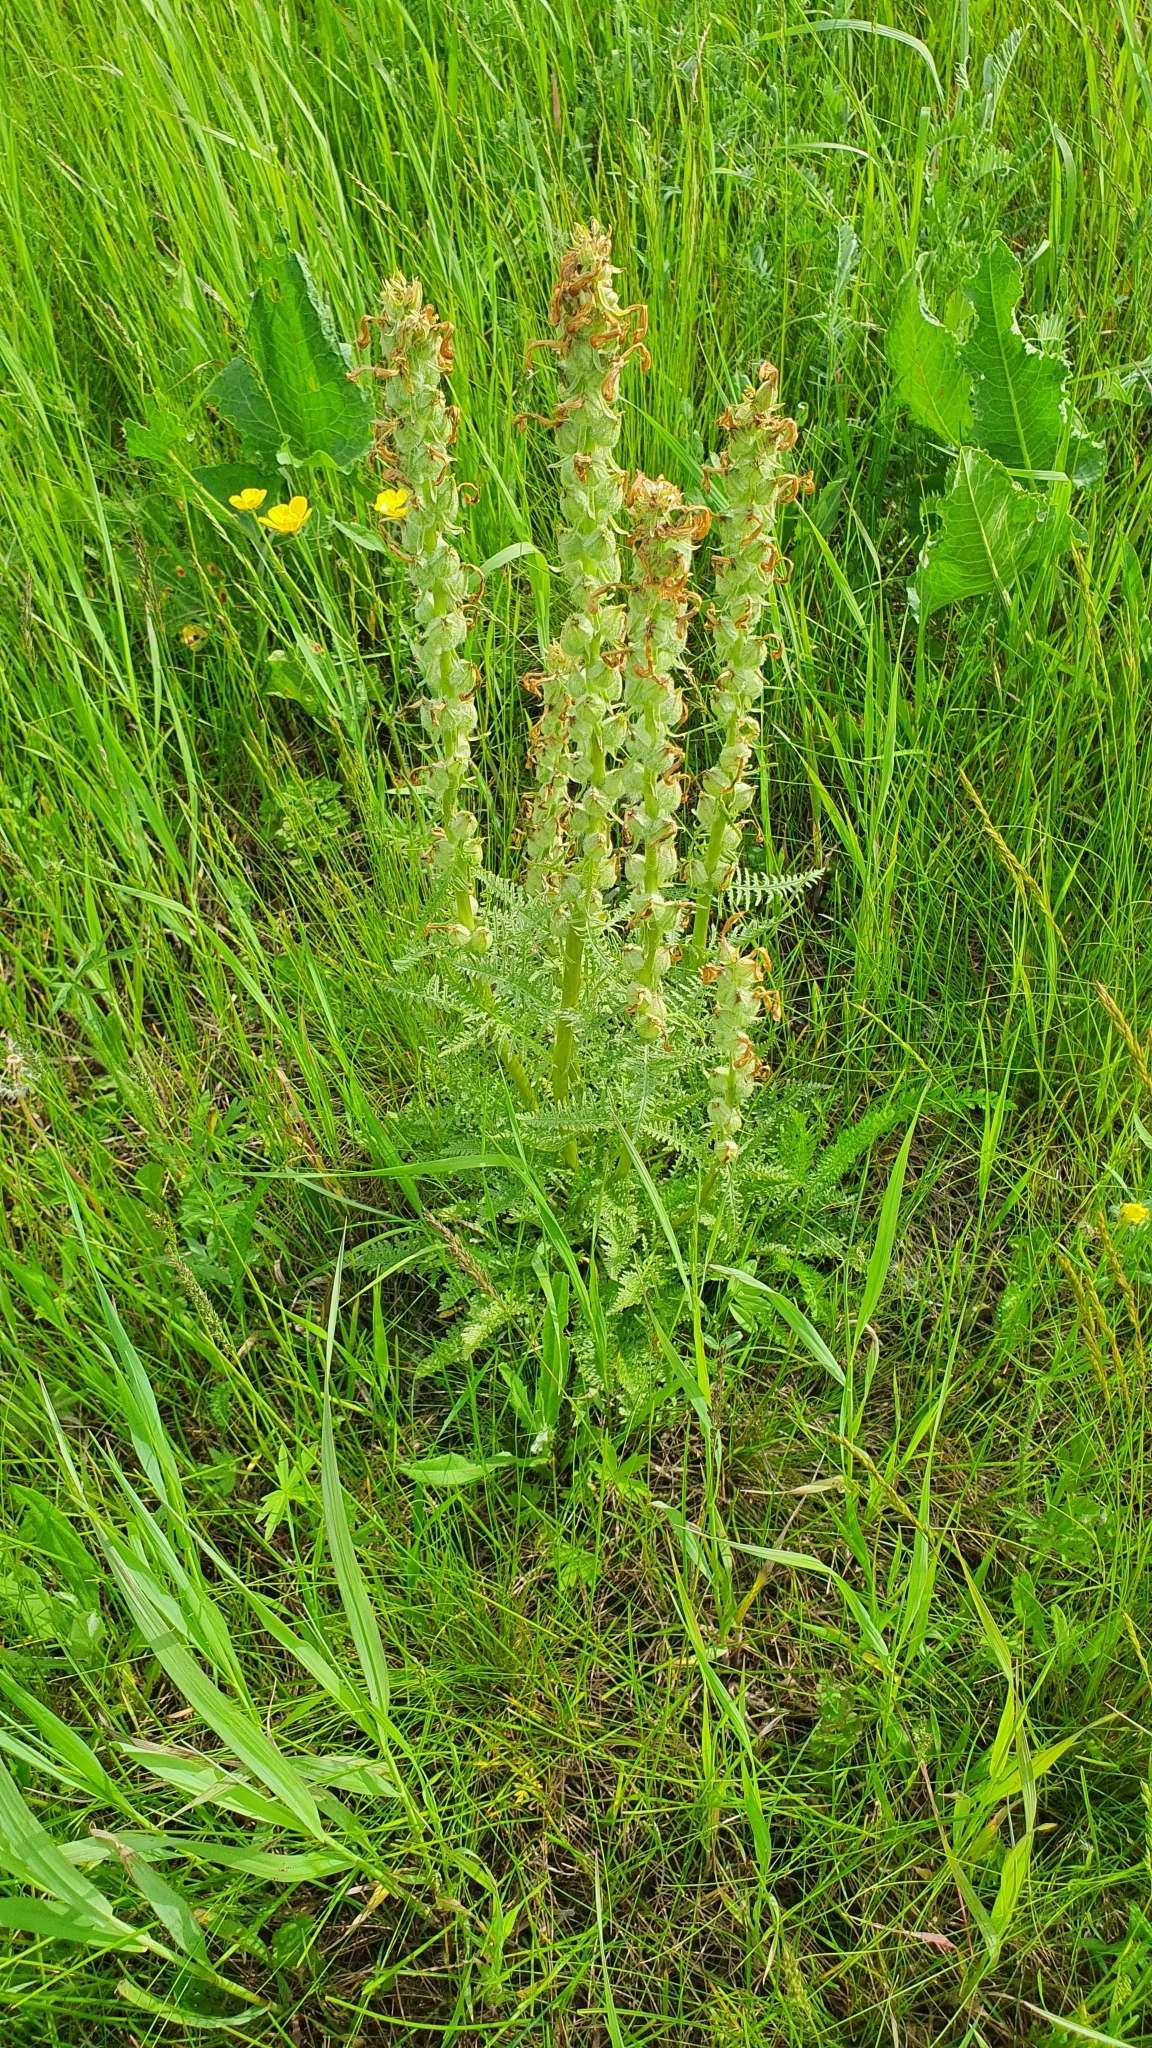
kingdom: Plantae
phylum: Tracheophyta
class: Magnoliopsida
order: Lamiales
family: Orobanchaceae
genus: Pedicularis
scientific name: Pedicularis kaufmannii
